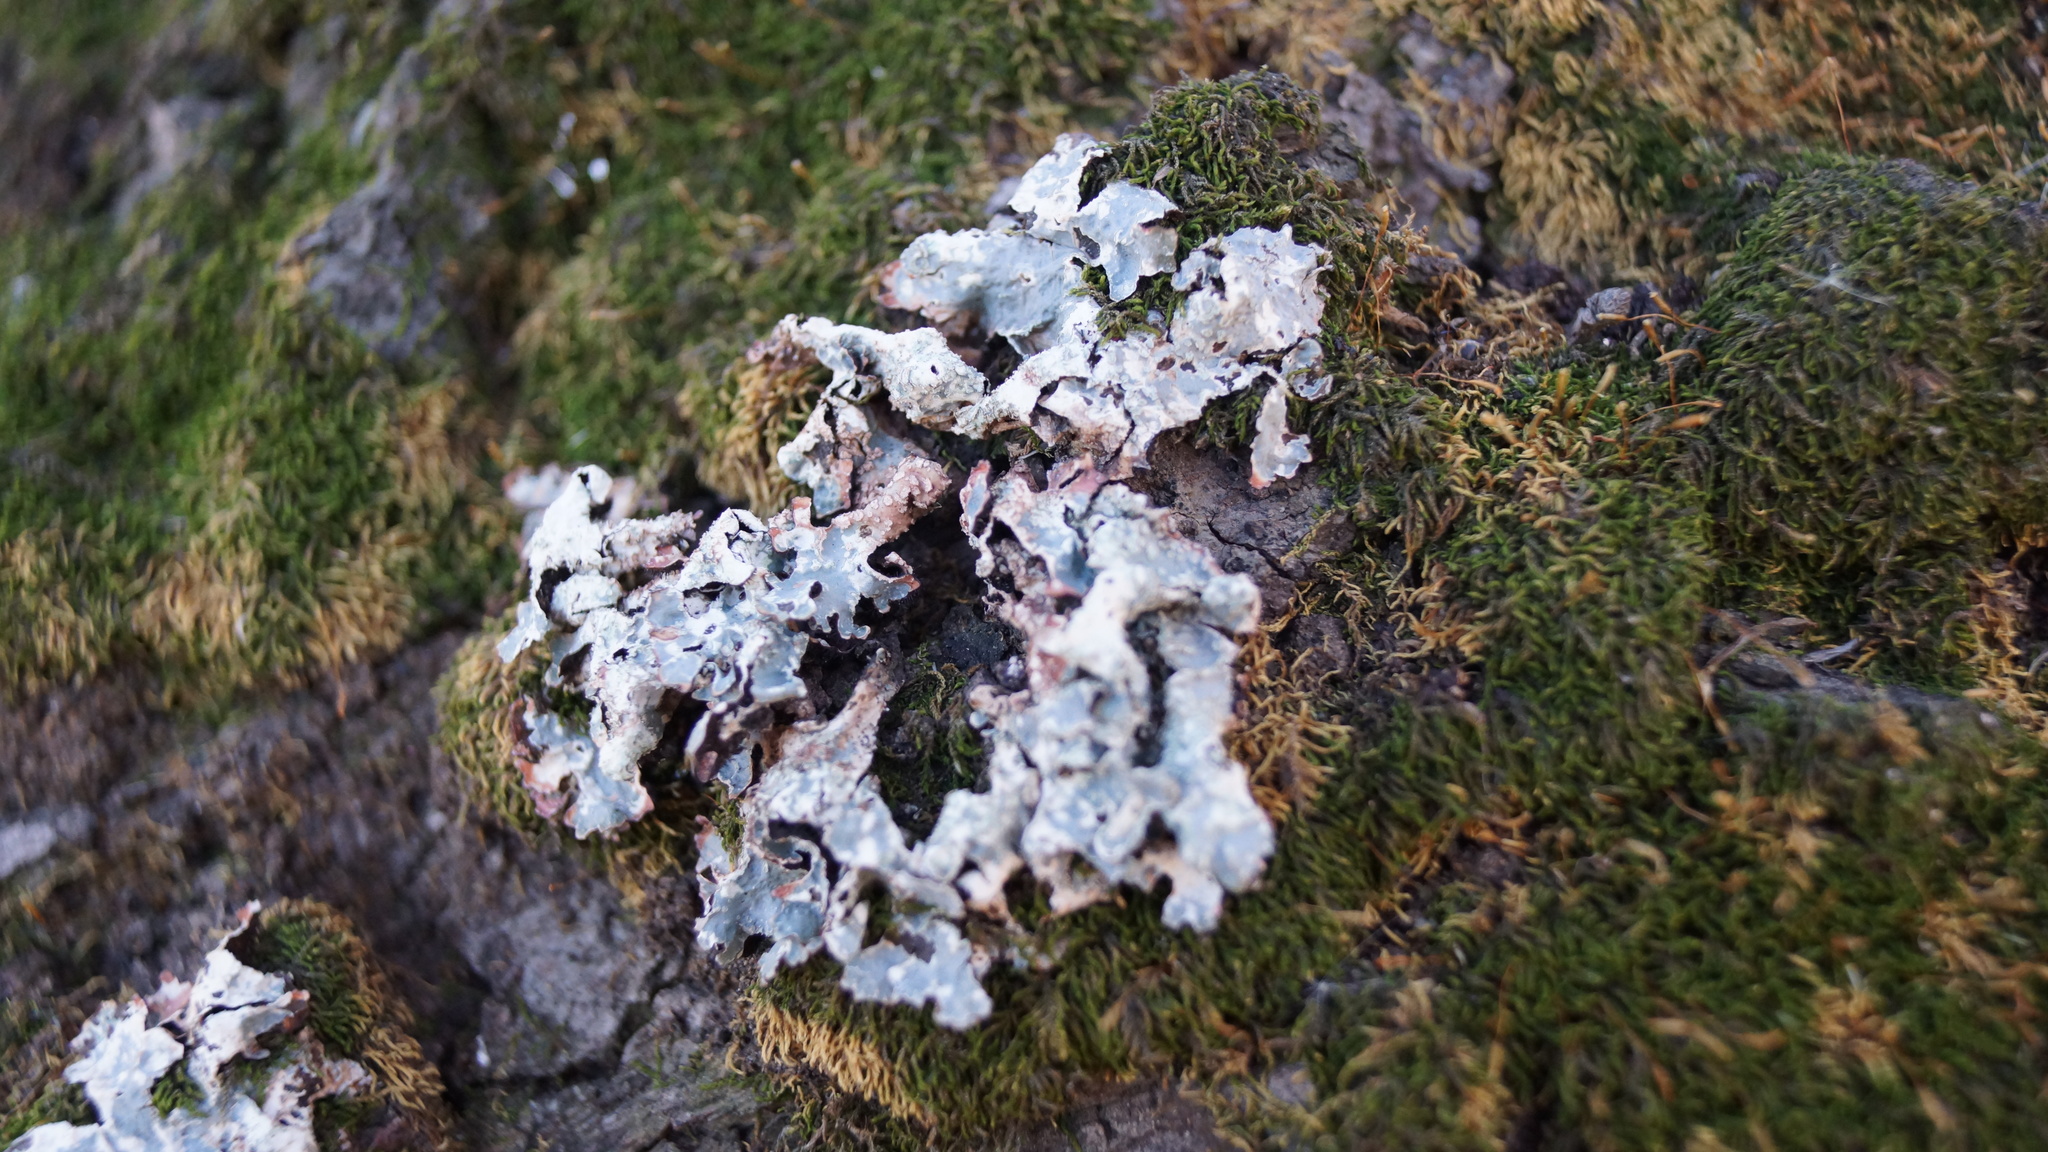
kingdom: Fungi
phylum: Ascomycota
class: Lecanoromycetes
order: Lecanorales
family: Parmeliaceae
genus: Parmelia
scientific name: Parmelia sulcata
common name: Netted shield lichen
